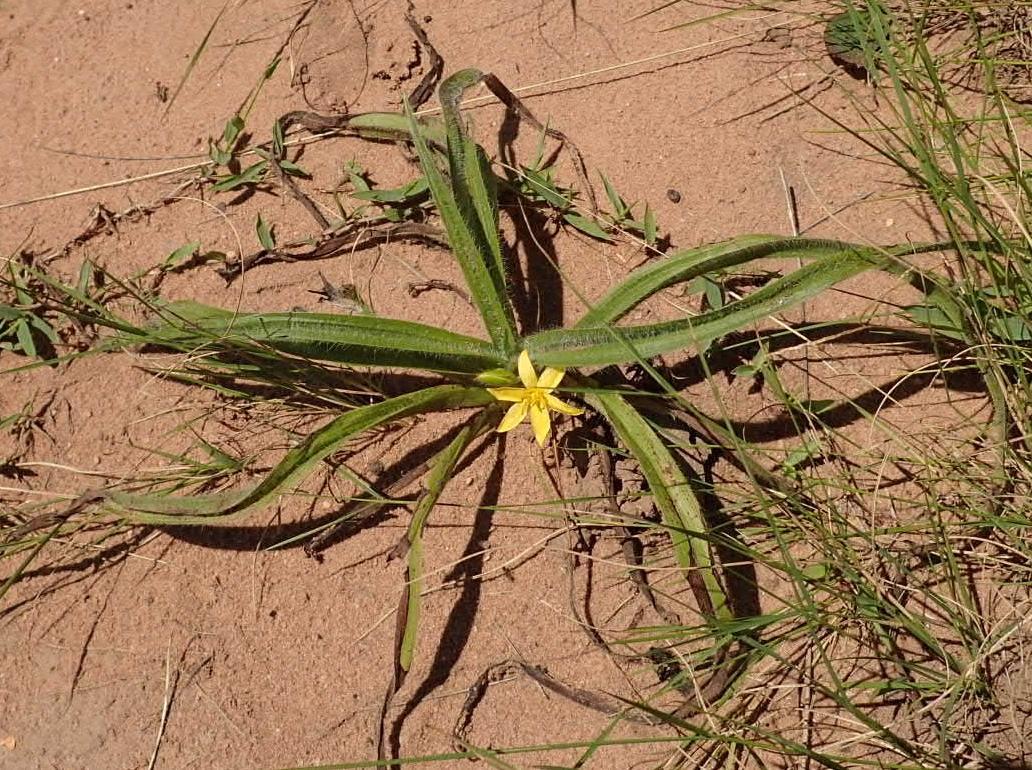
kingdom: Plantae
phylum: Tracheophyta
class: Liliopsida
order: Asparagales
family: Hypoxidaceae
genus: Hypoxis
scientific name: Hypoxis argentea
